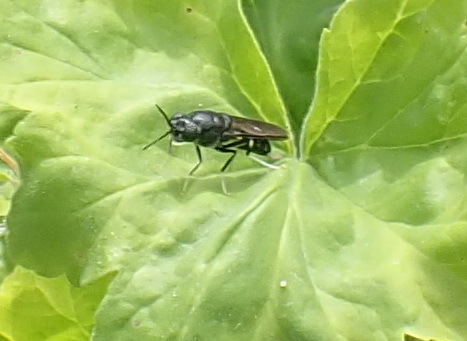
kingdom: Animalia
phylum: Arthropoda
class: Insecta
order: Diptera
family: Stratiomyidae
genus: Hermetia
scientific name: Hermetia illucens
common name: Black soldier fly
